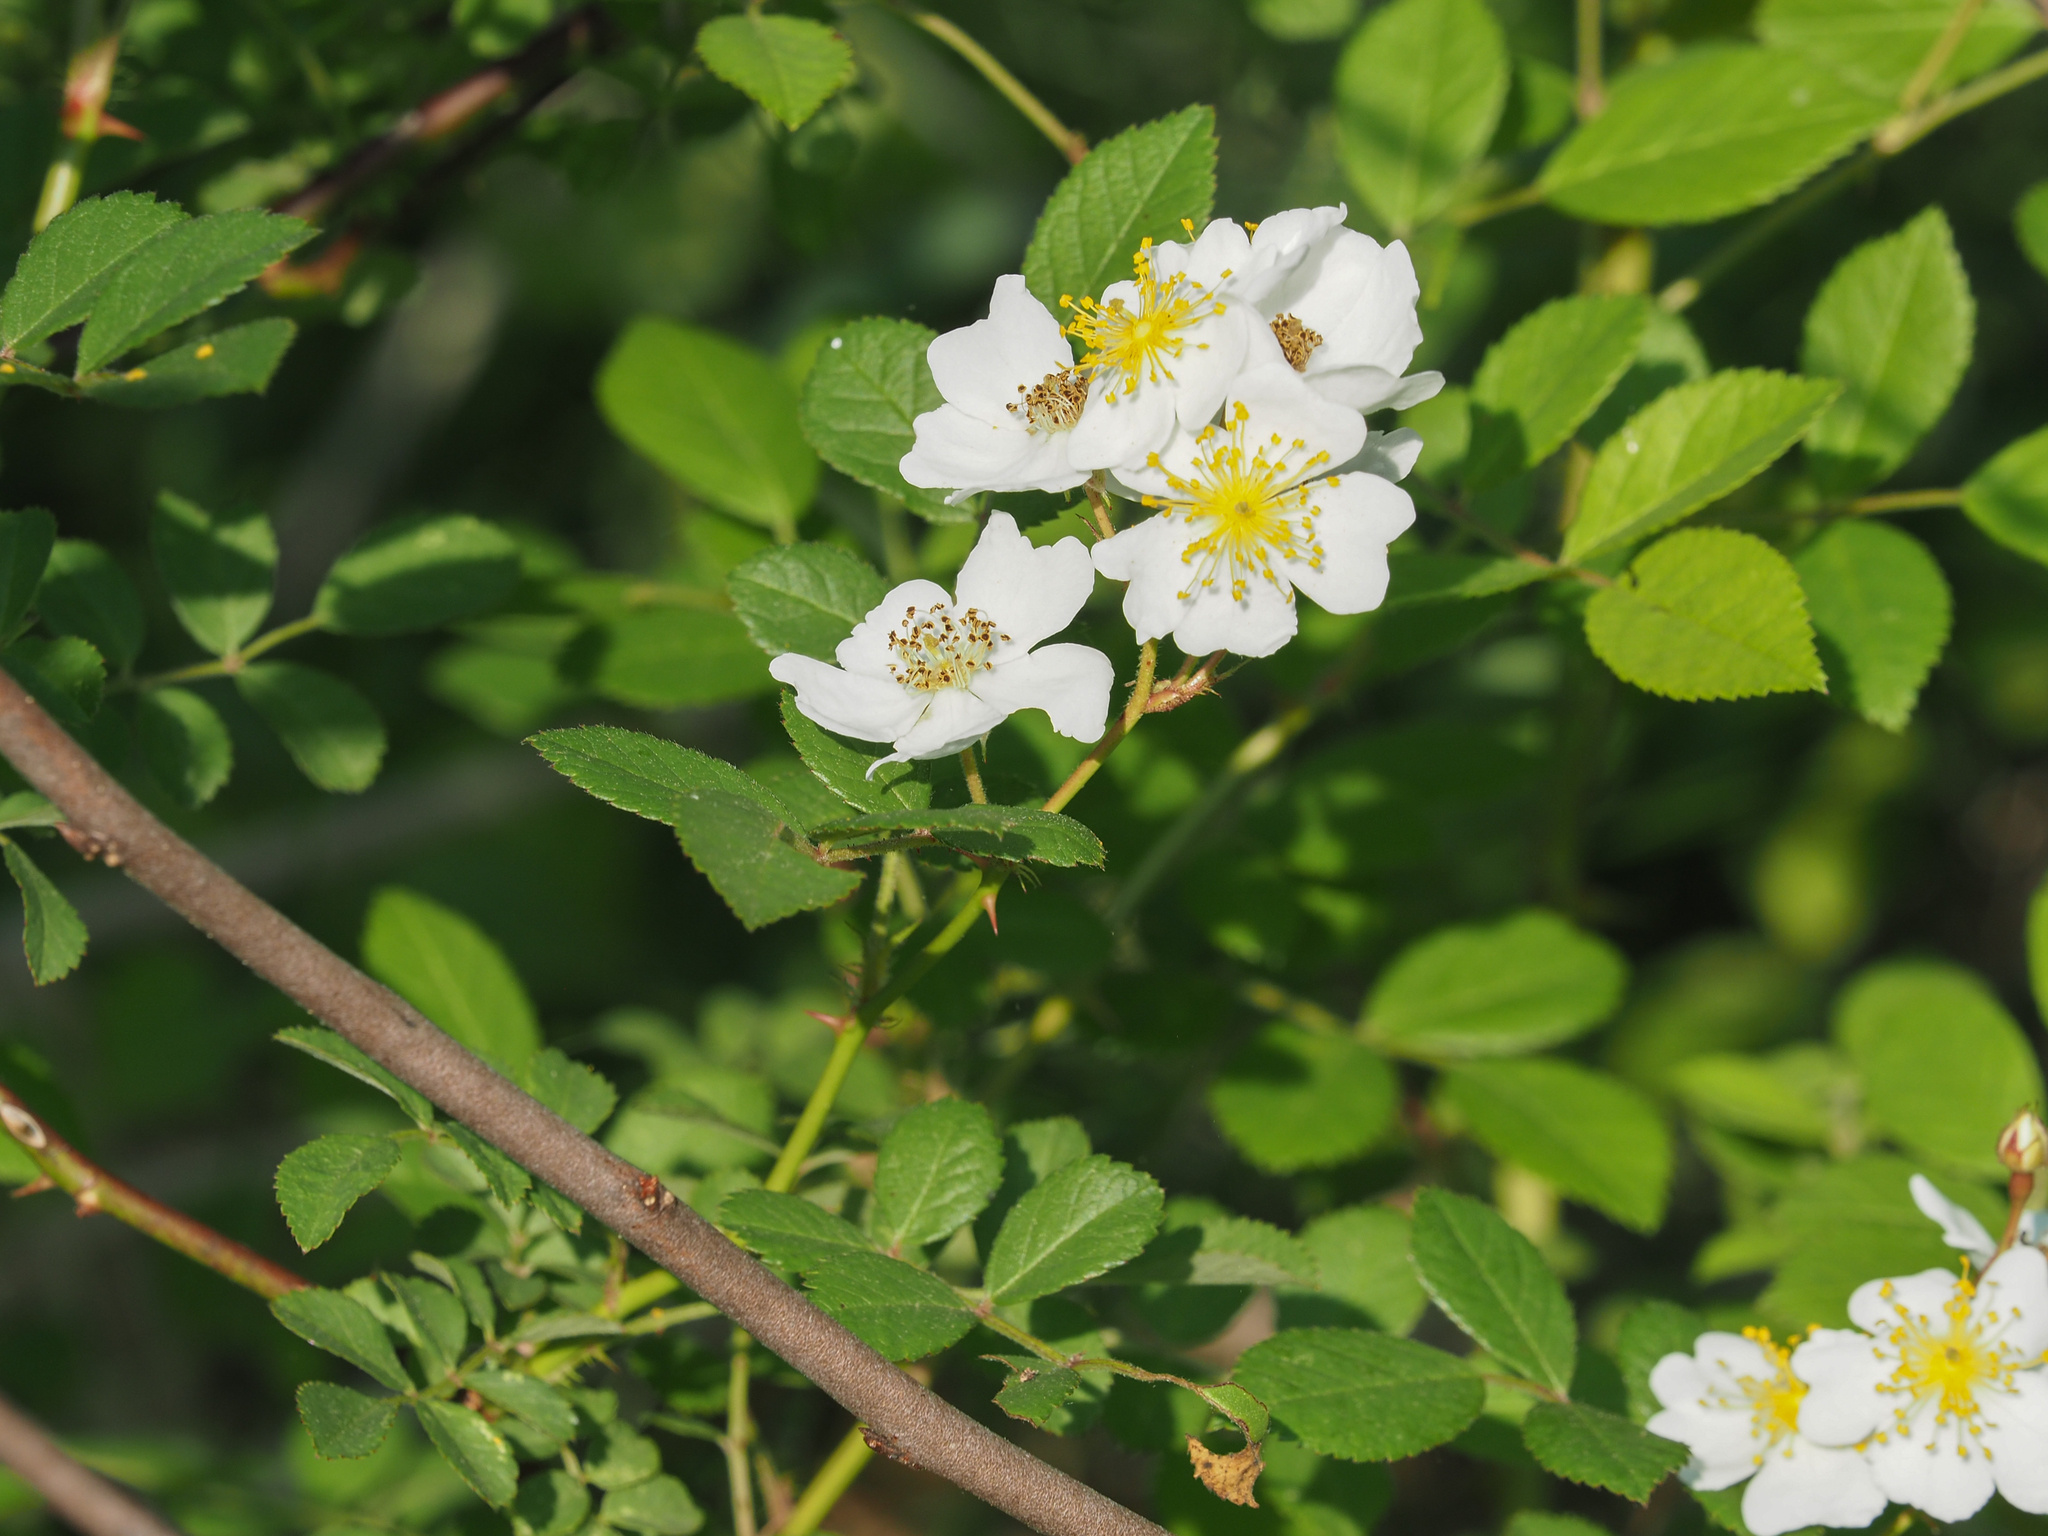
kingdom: Plantae
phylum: Tracheophyta
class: Magnoliopsida
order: Rosales
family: Rosaceae
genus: Rosa
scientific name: Rosa multiflora
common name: Multiflora rose
